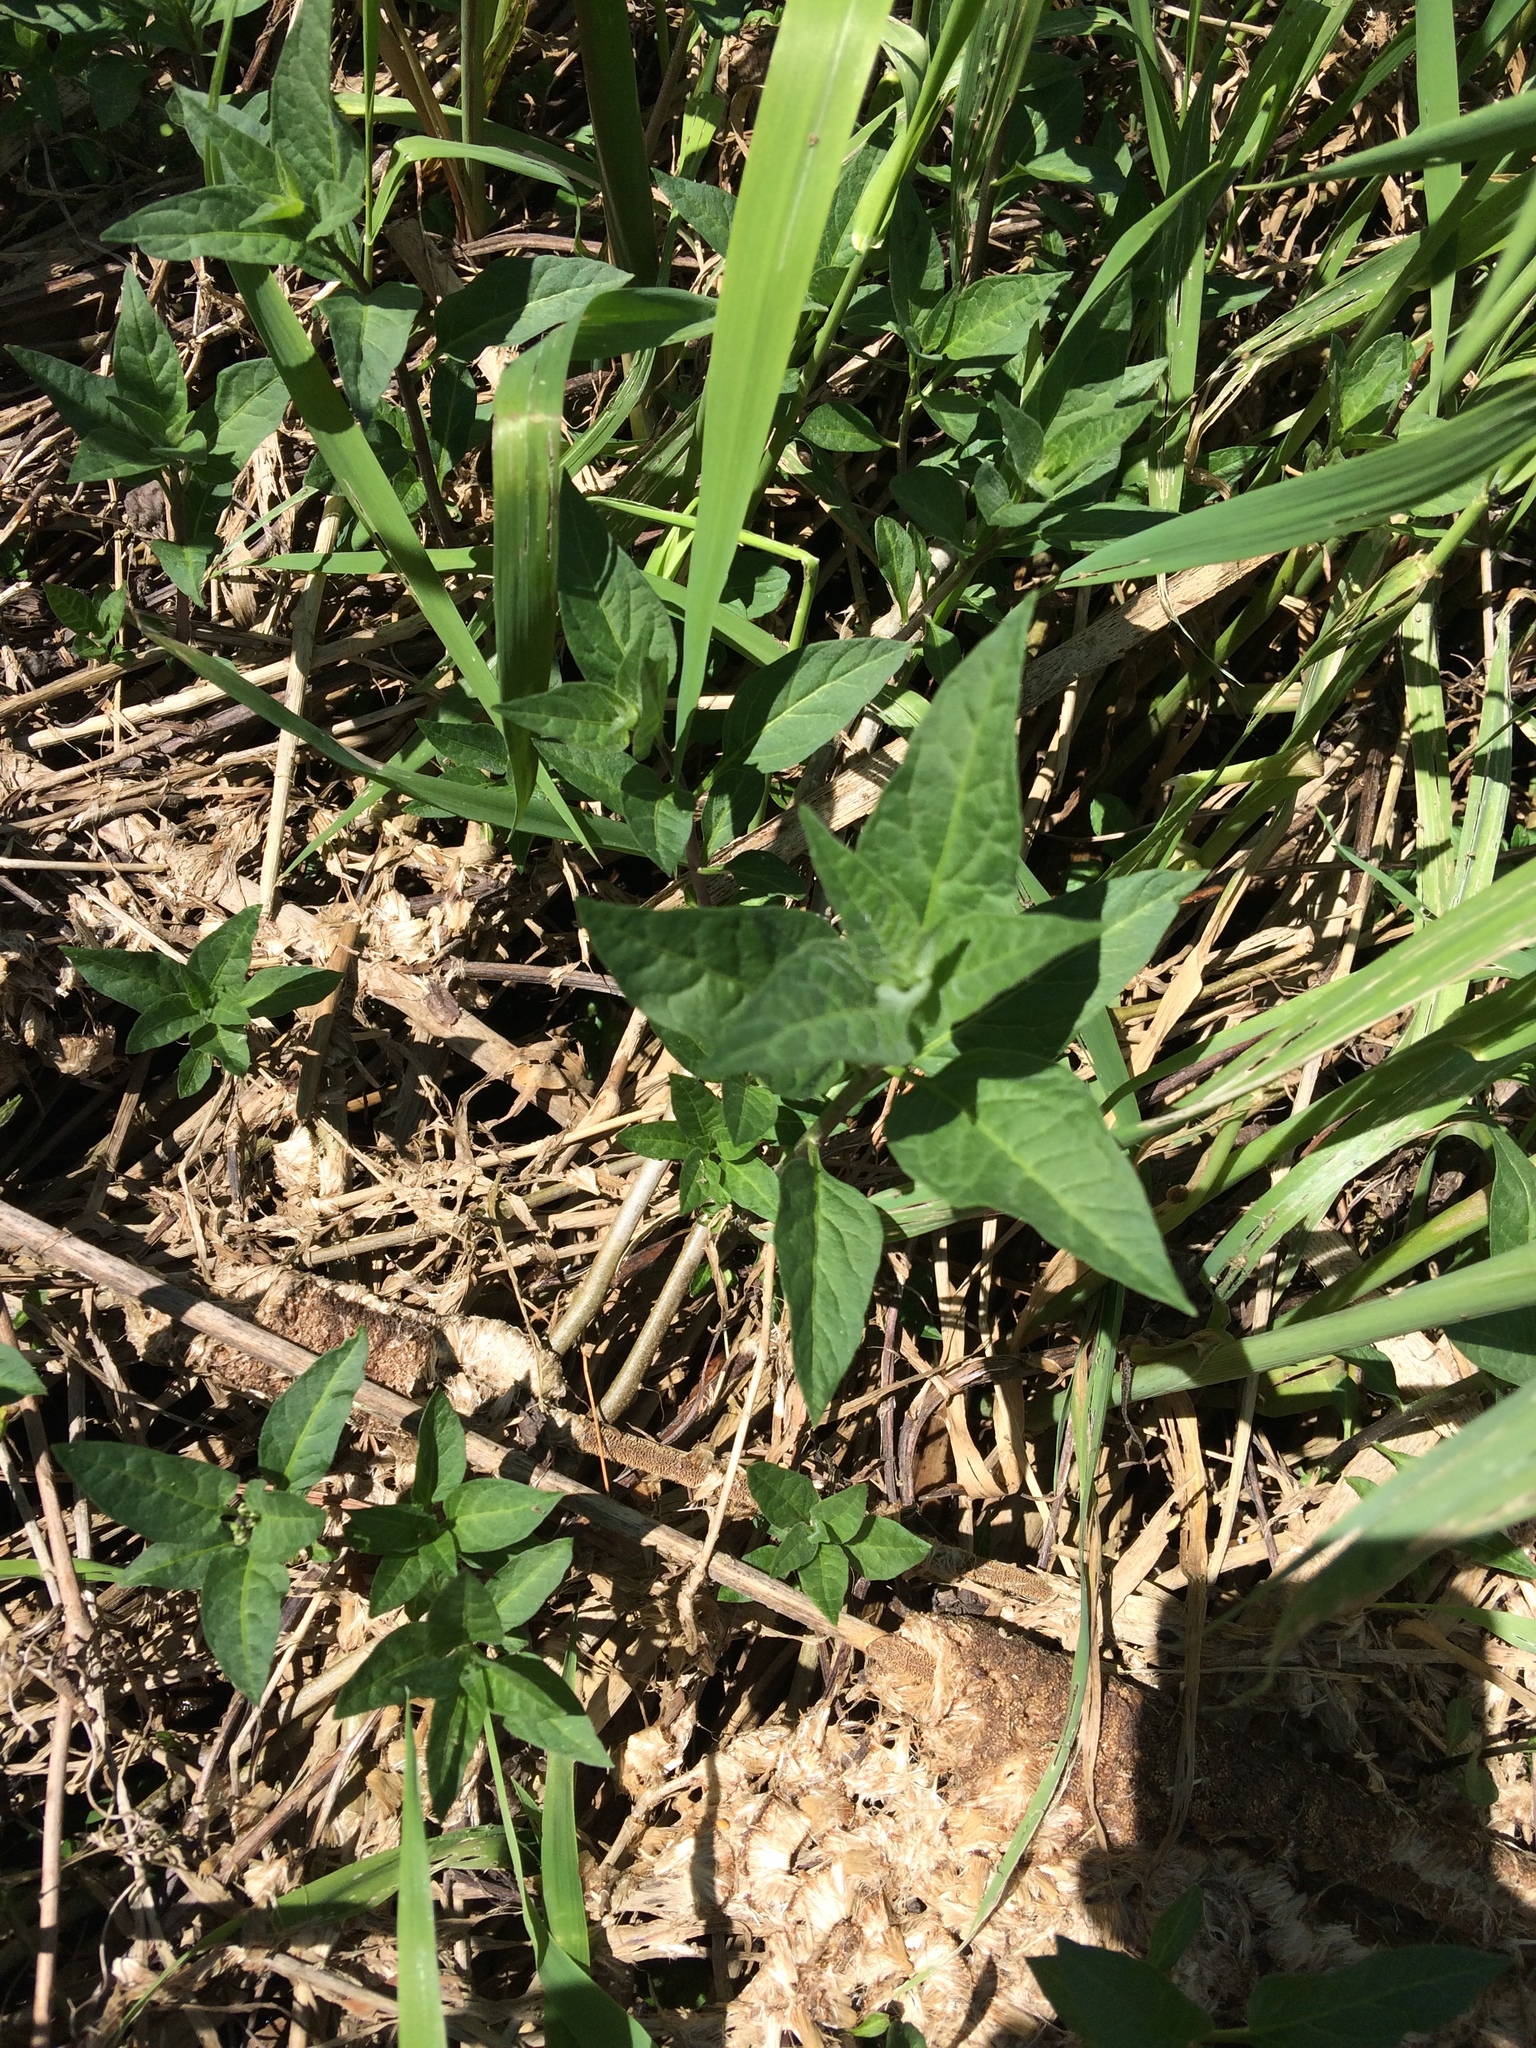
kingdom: Plantae
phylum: Tracheophyta
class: Magnoliopsida
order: Solanales
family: Solanaceae
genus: Solanum
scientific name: Solanum dulcamara
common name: Climbing nightshade
